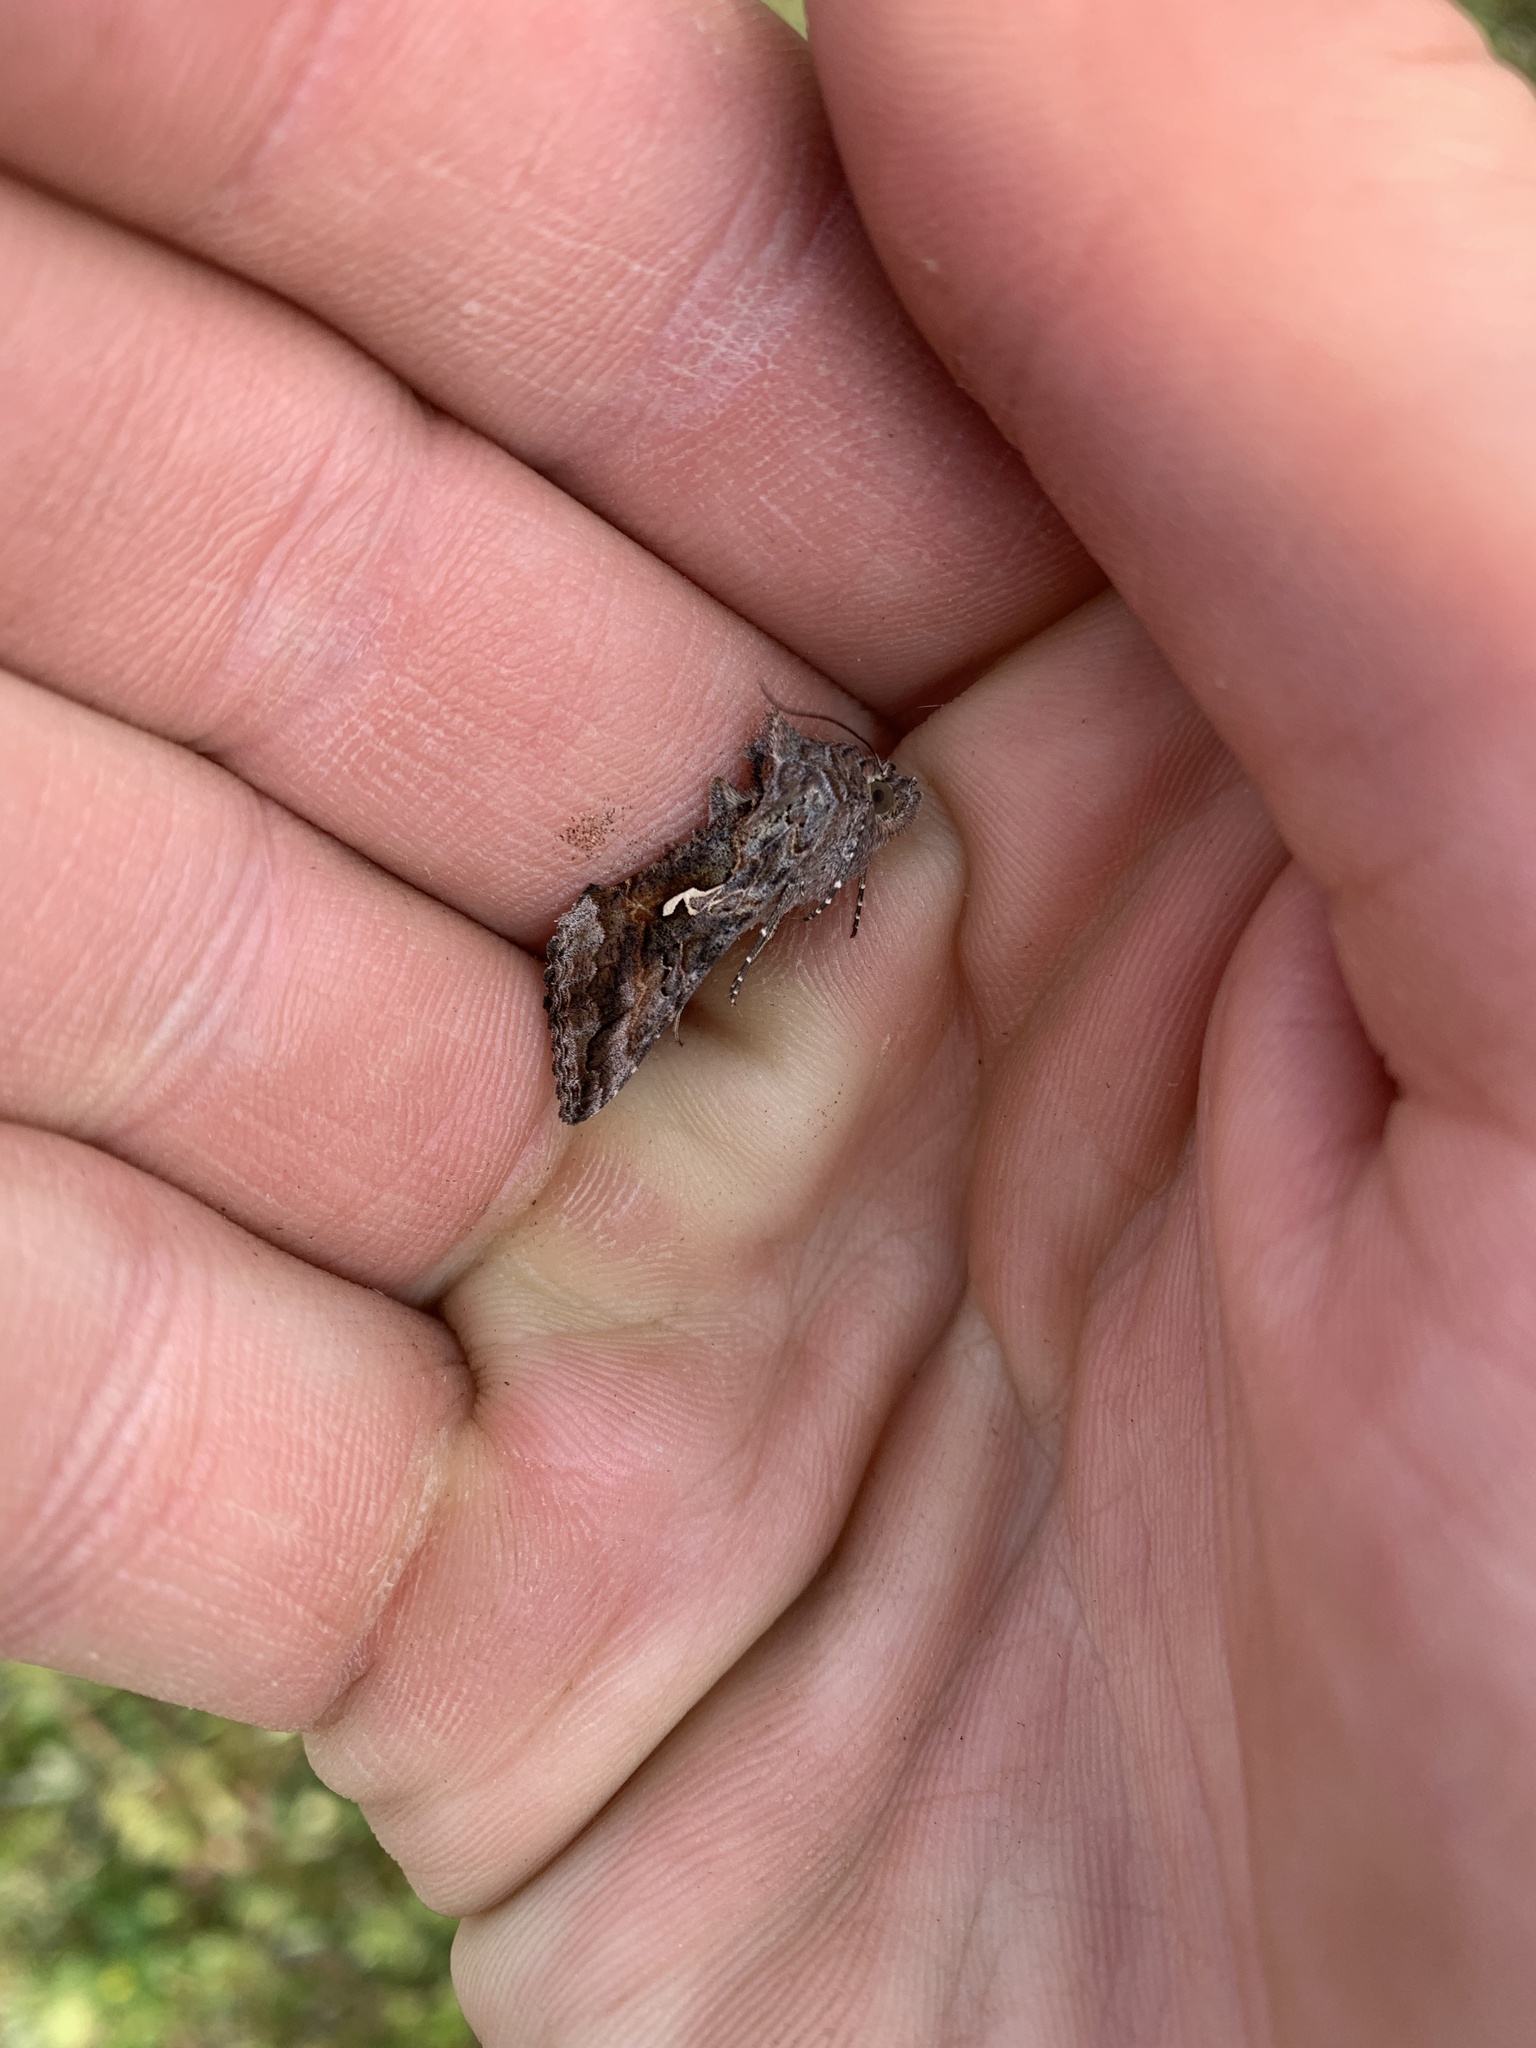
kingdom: Animalia
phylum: Arthropoda
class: Insecta
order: Lepidoptera
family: Noctuidae
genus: Autographa
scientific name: Autographa californica
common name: Alfalfa looper
